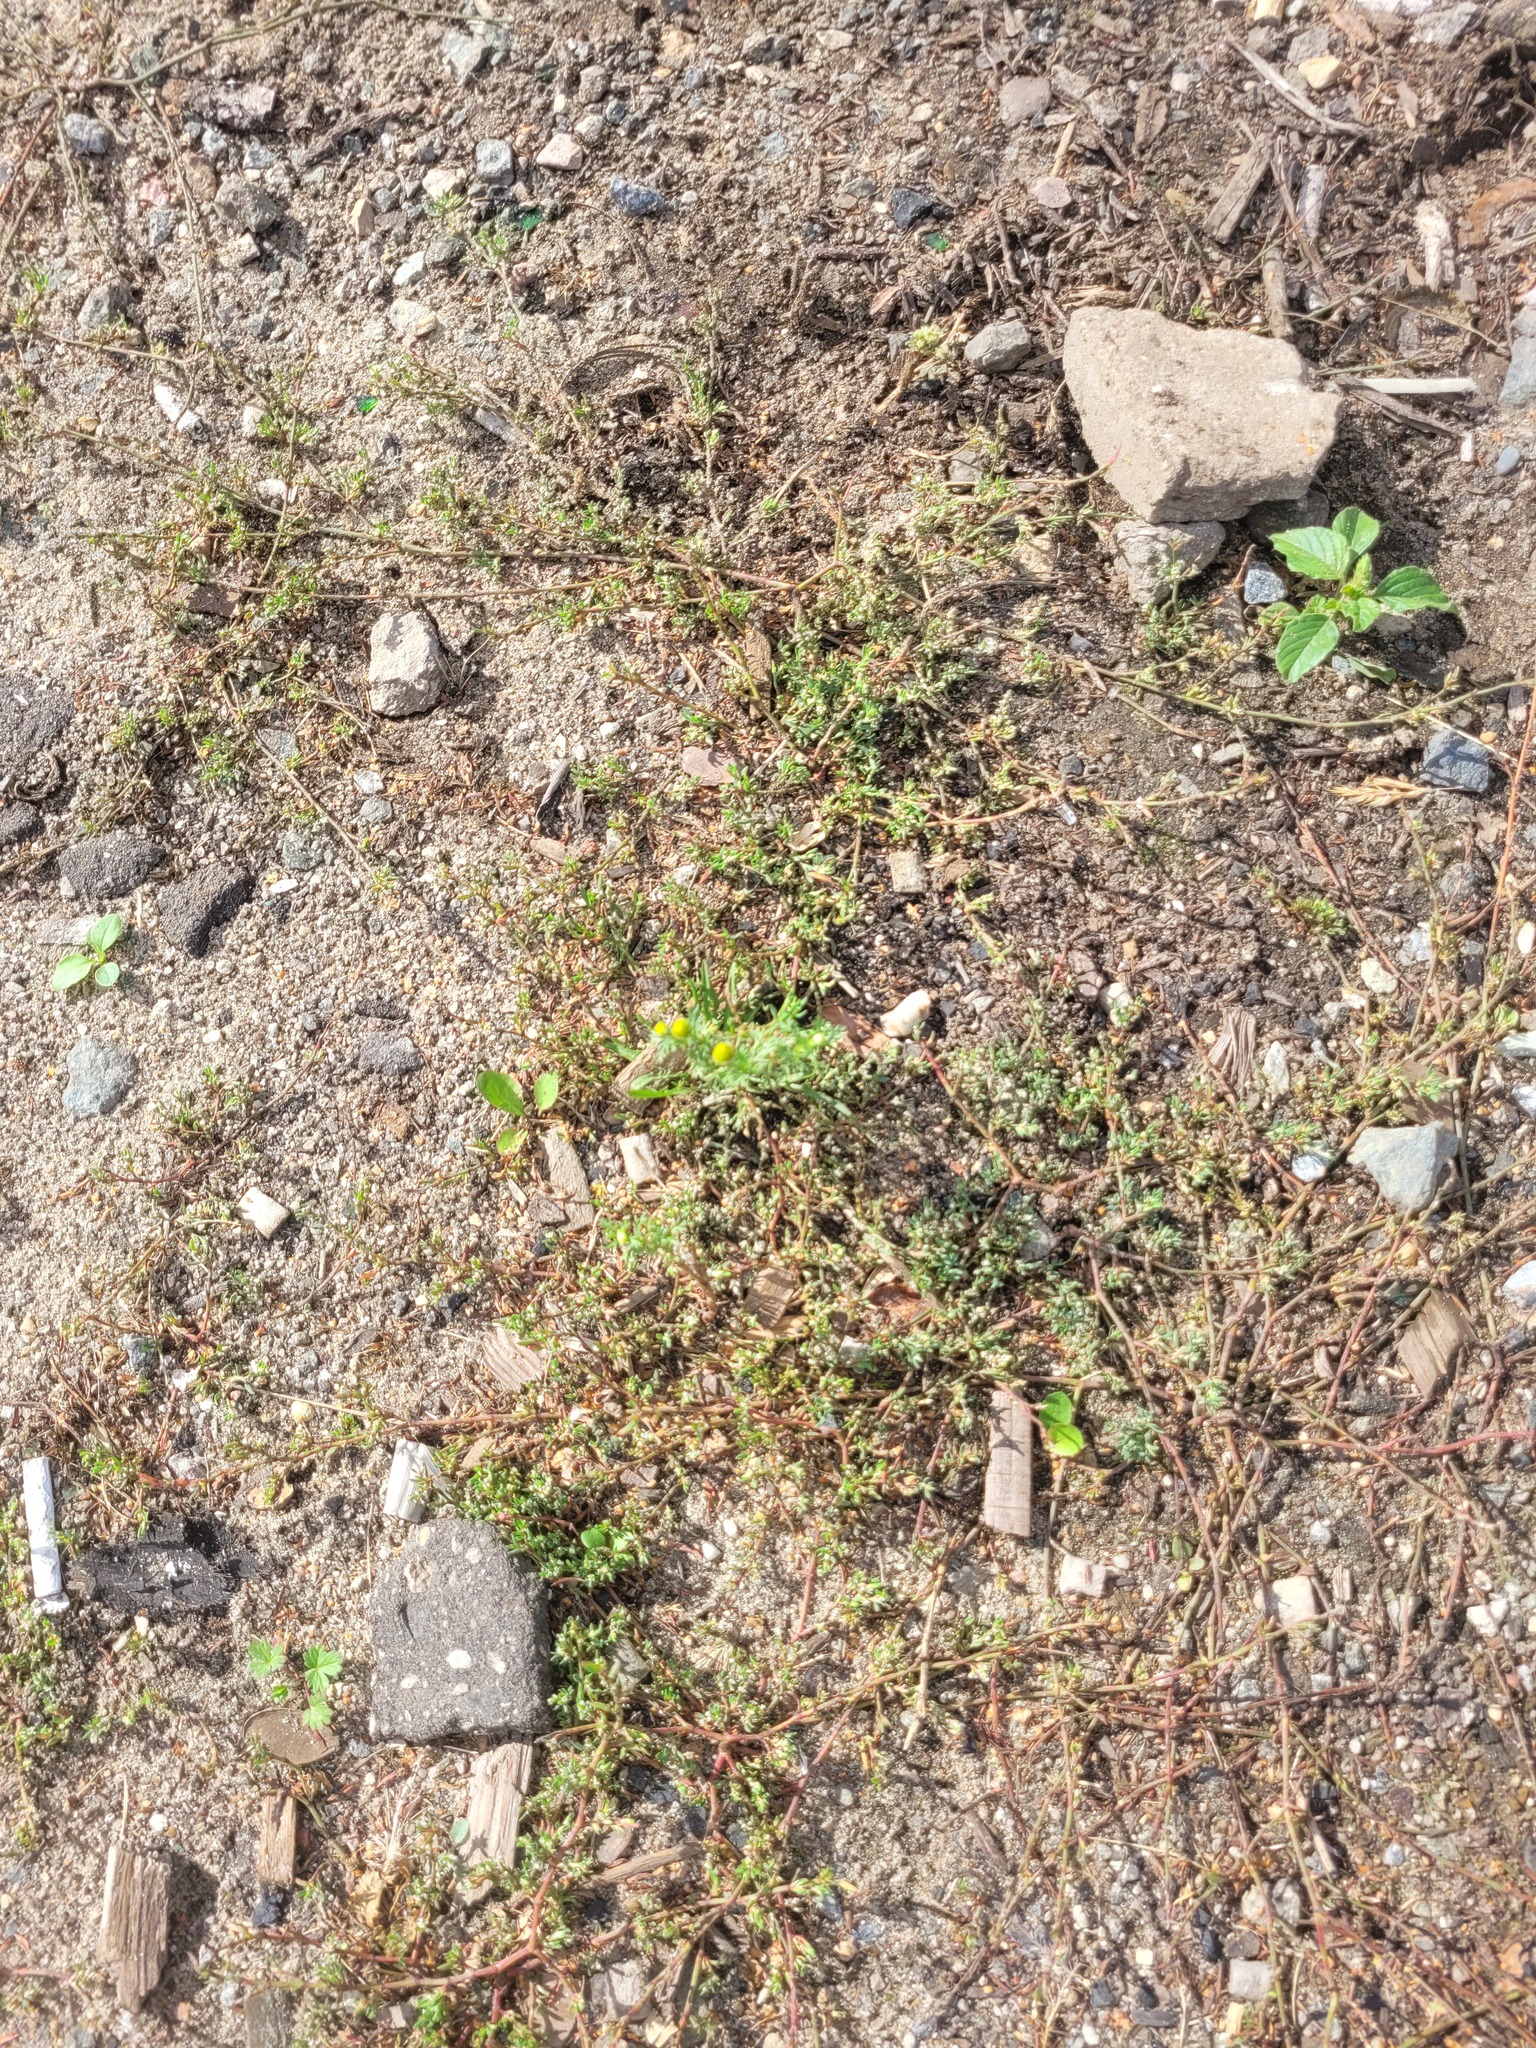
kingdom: Plantae
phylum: Tracheophyta
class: Magnoliopsida
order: Asterales
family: Asteraceae
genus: Matricaria
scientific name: Matricaria discoidea
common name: Disc mayweed
